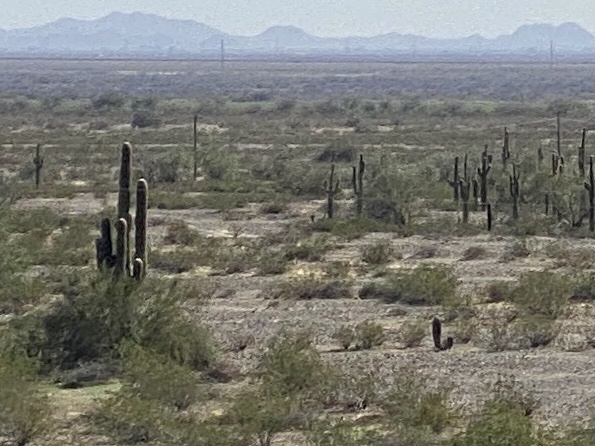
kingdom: Plantae
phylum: Tracheophyta
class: Magnoliopsida
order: Caryophyllales
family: Cactaceae
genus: Carnegiea
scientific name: Carnegiea gigantea
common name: Saguaro
